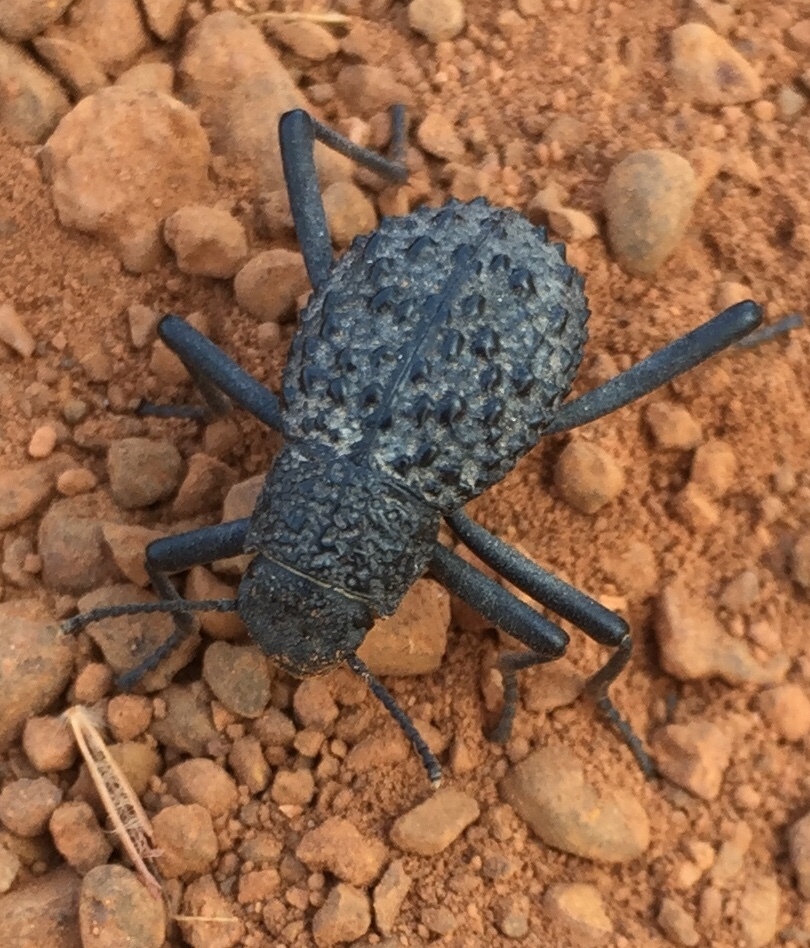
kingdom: Animalia
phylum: Arthropoda
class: Insecta
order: Coleoptera
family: Tenebrionidae
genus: Adesmia
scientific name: Adesmia
